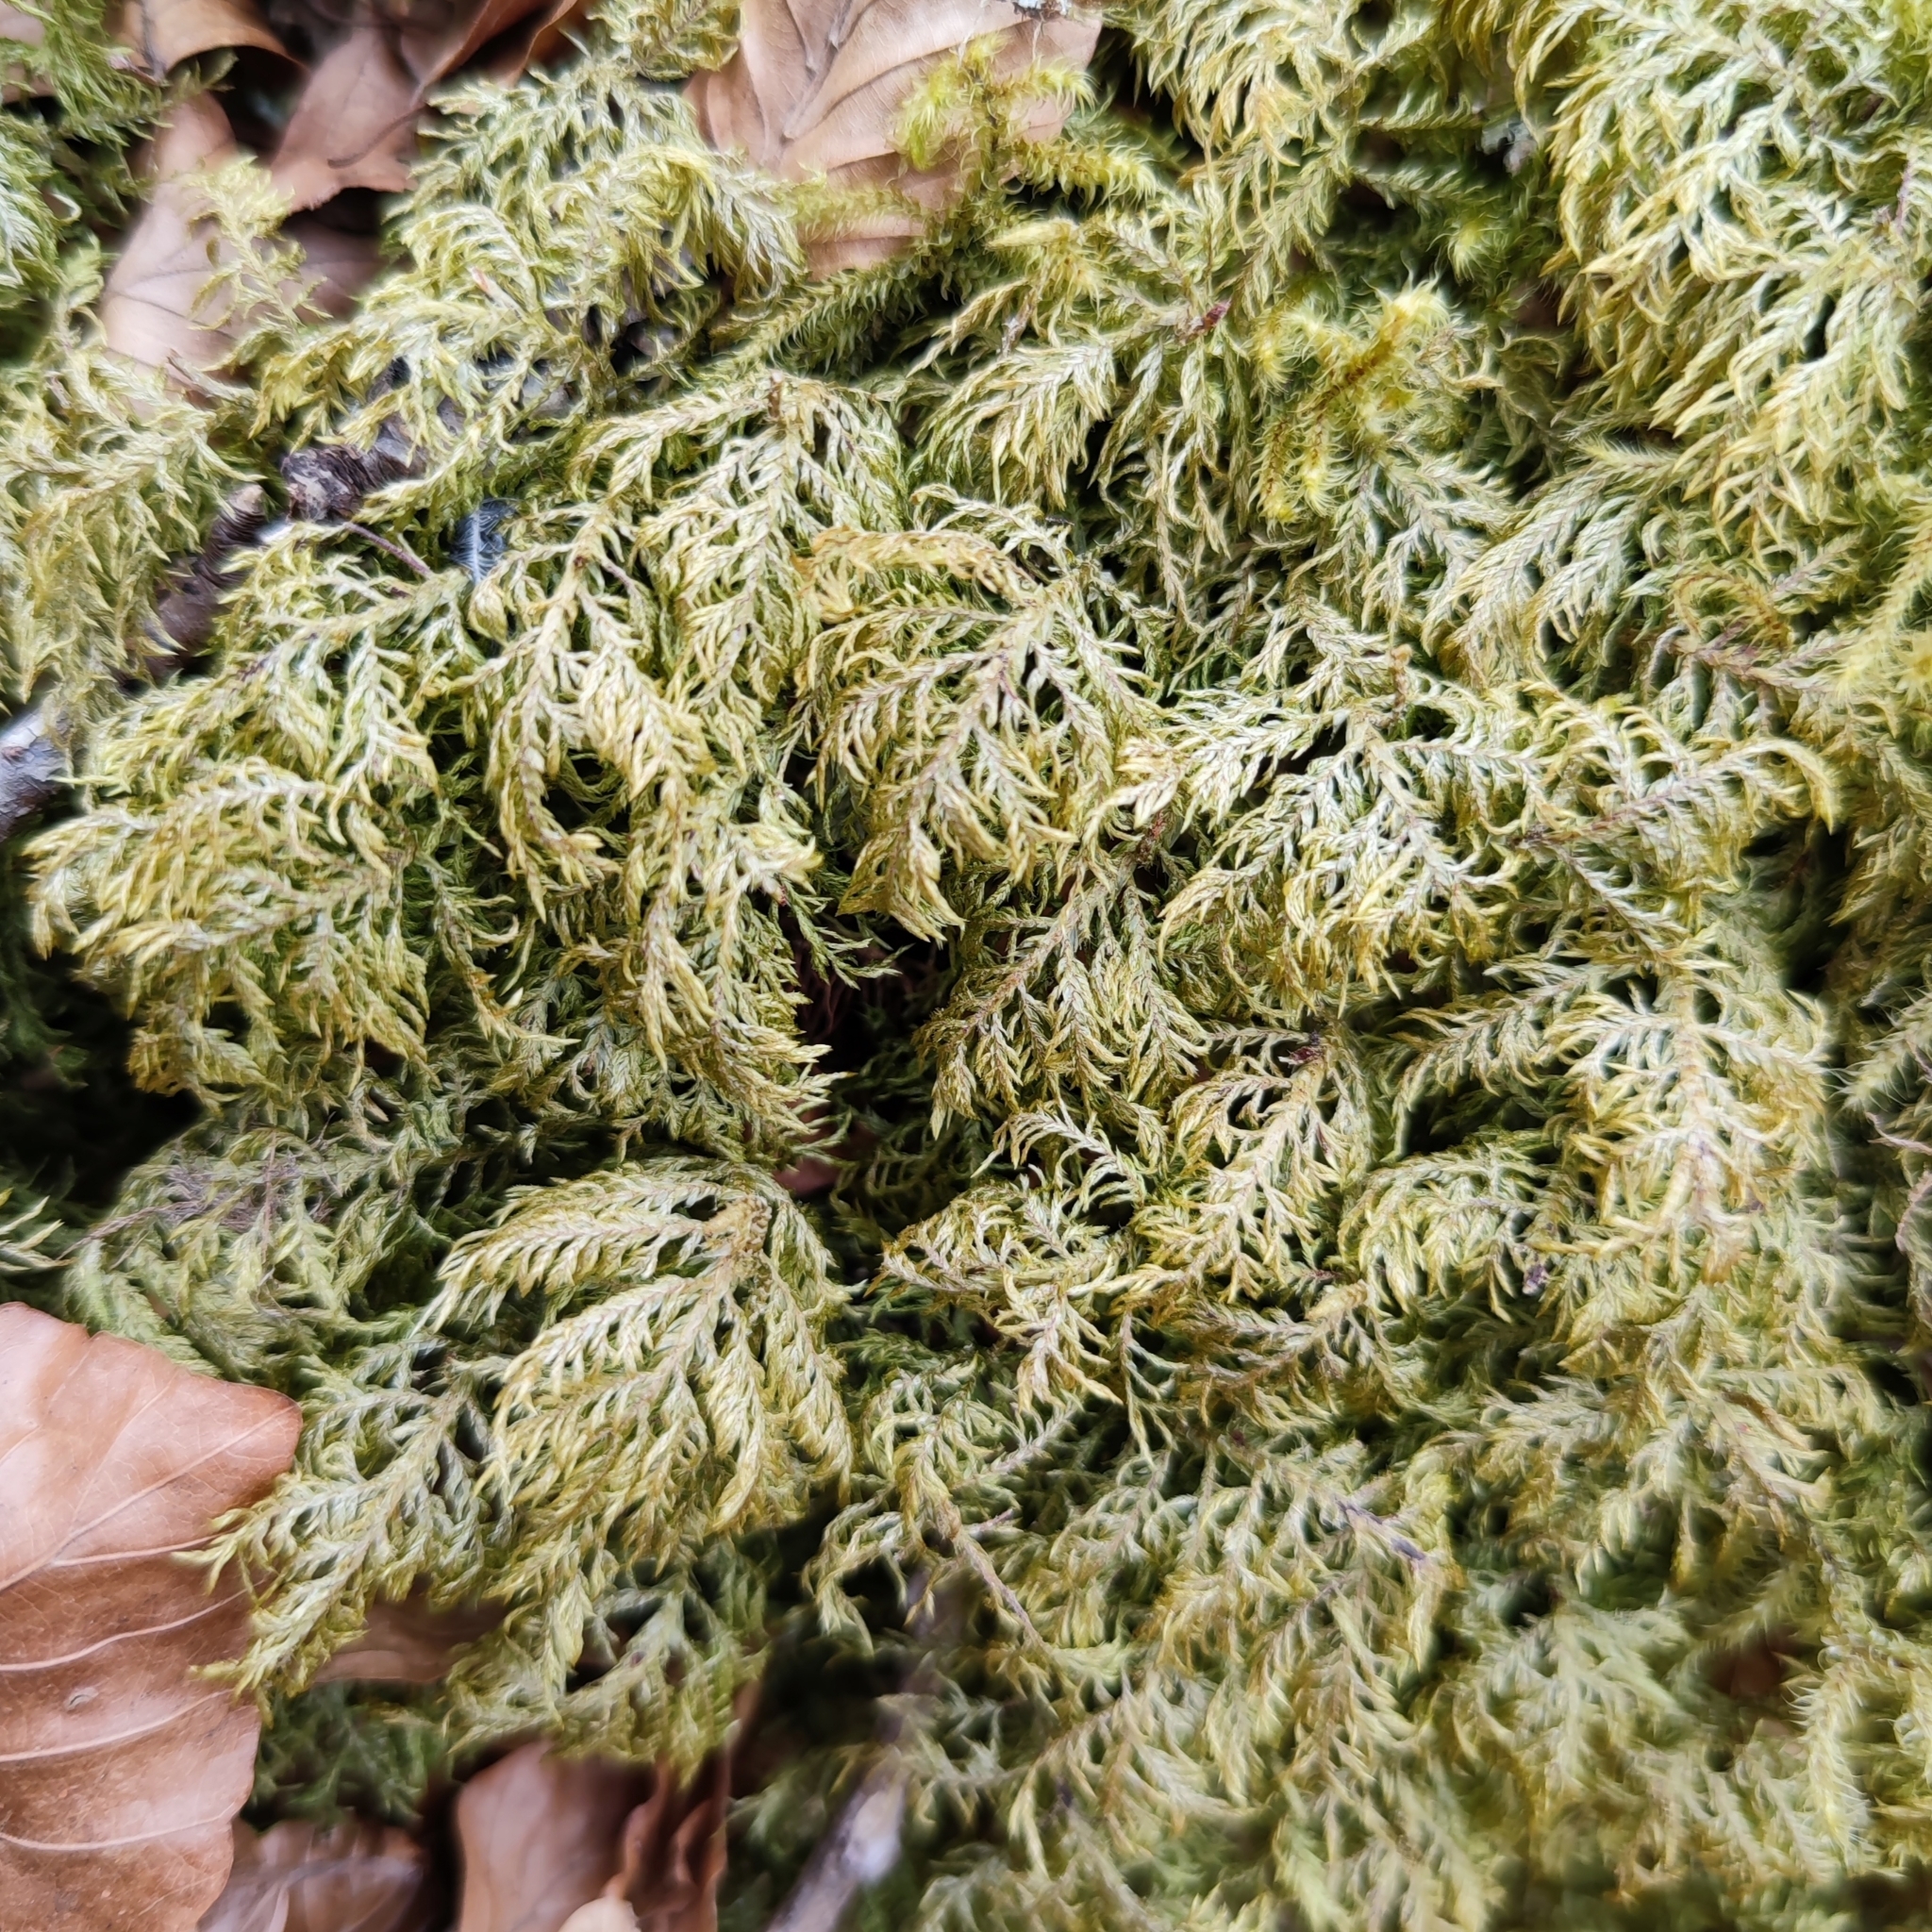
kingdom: Plantae
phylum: Bryophyta
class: Bryopsida
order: Hypnales
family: Hylocomiaceae
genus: Hylocomium
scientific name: Hylocomium splendens
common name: Stairstep moss
